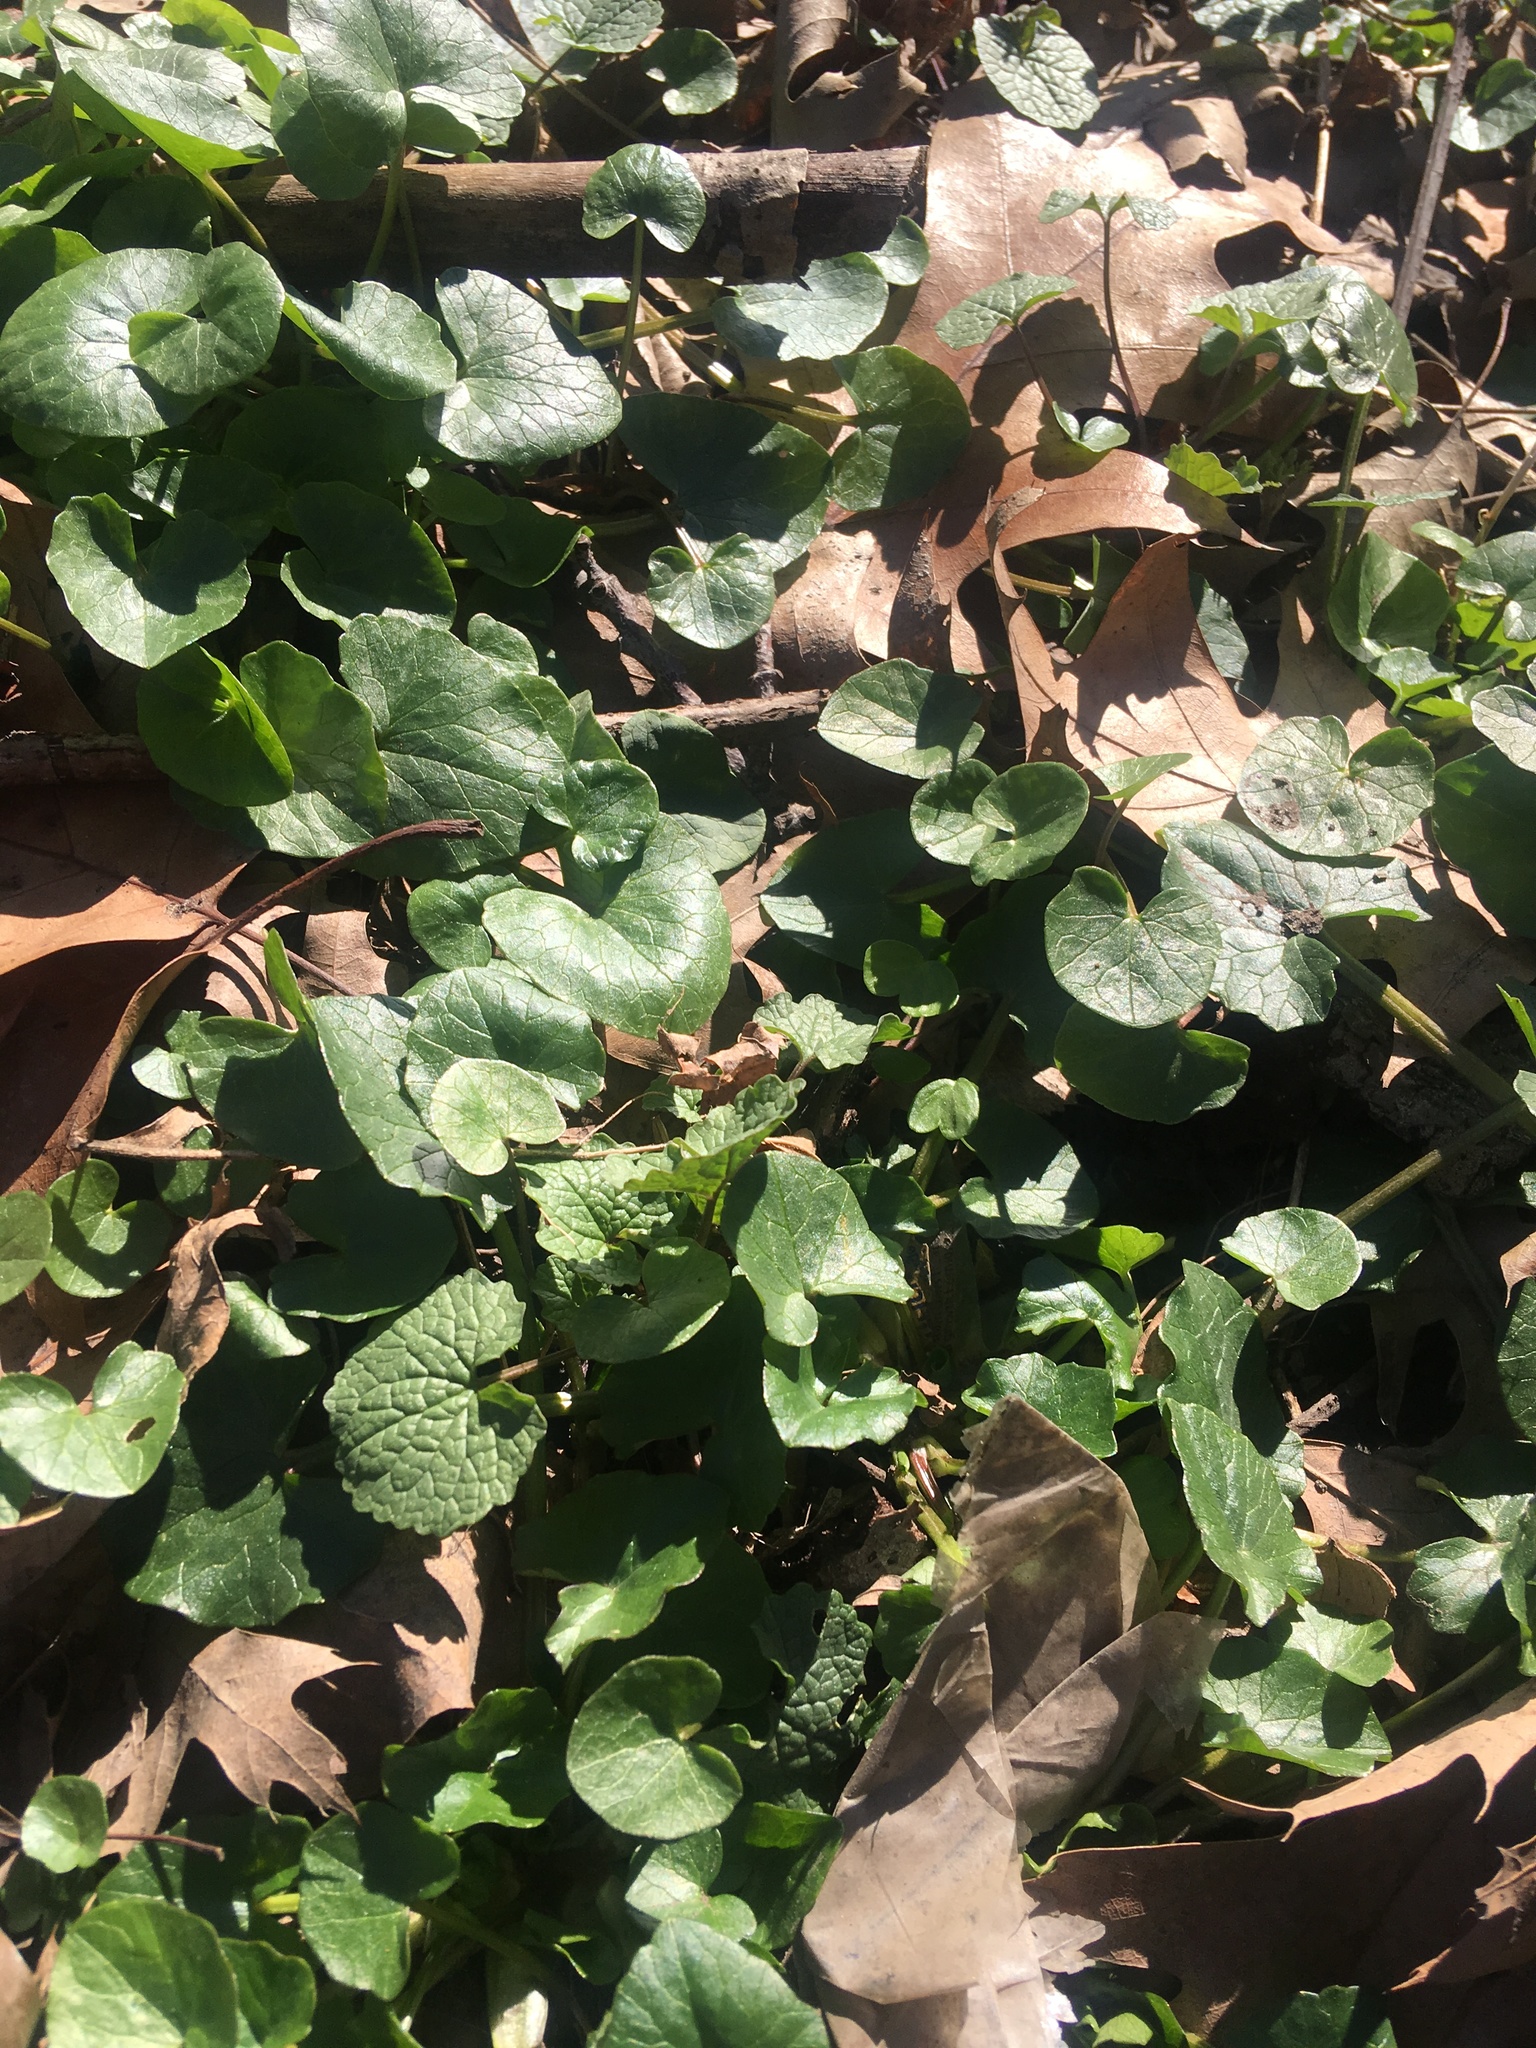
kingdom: Plantae
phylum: Tracheophyta
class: Magnoliopsida
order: Ranunculales
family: Ranunculaceae
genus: Ficaria
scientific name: Ficaria verna
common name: Lesser celandine
